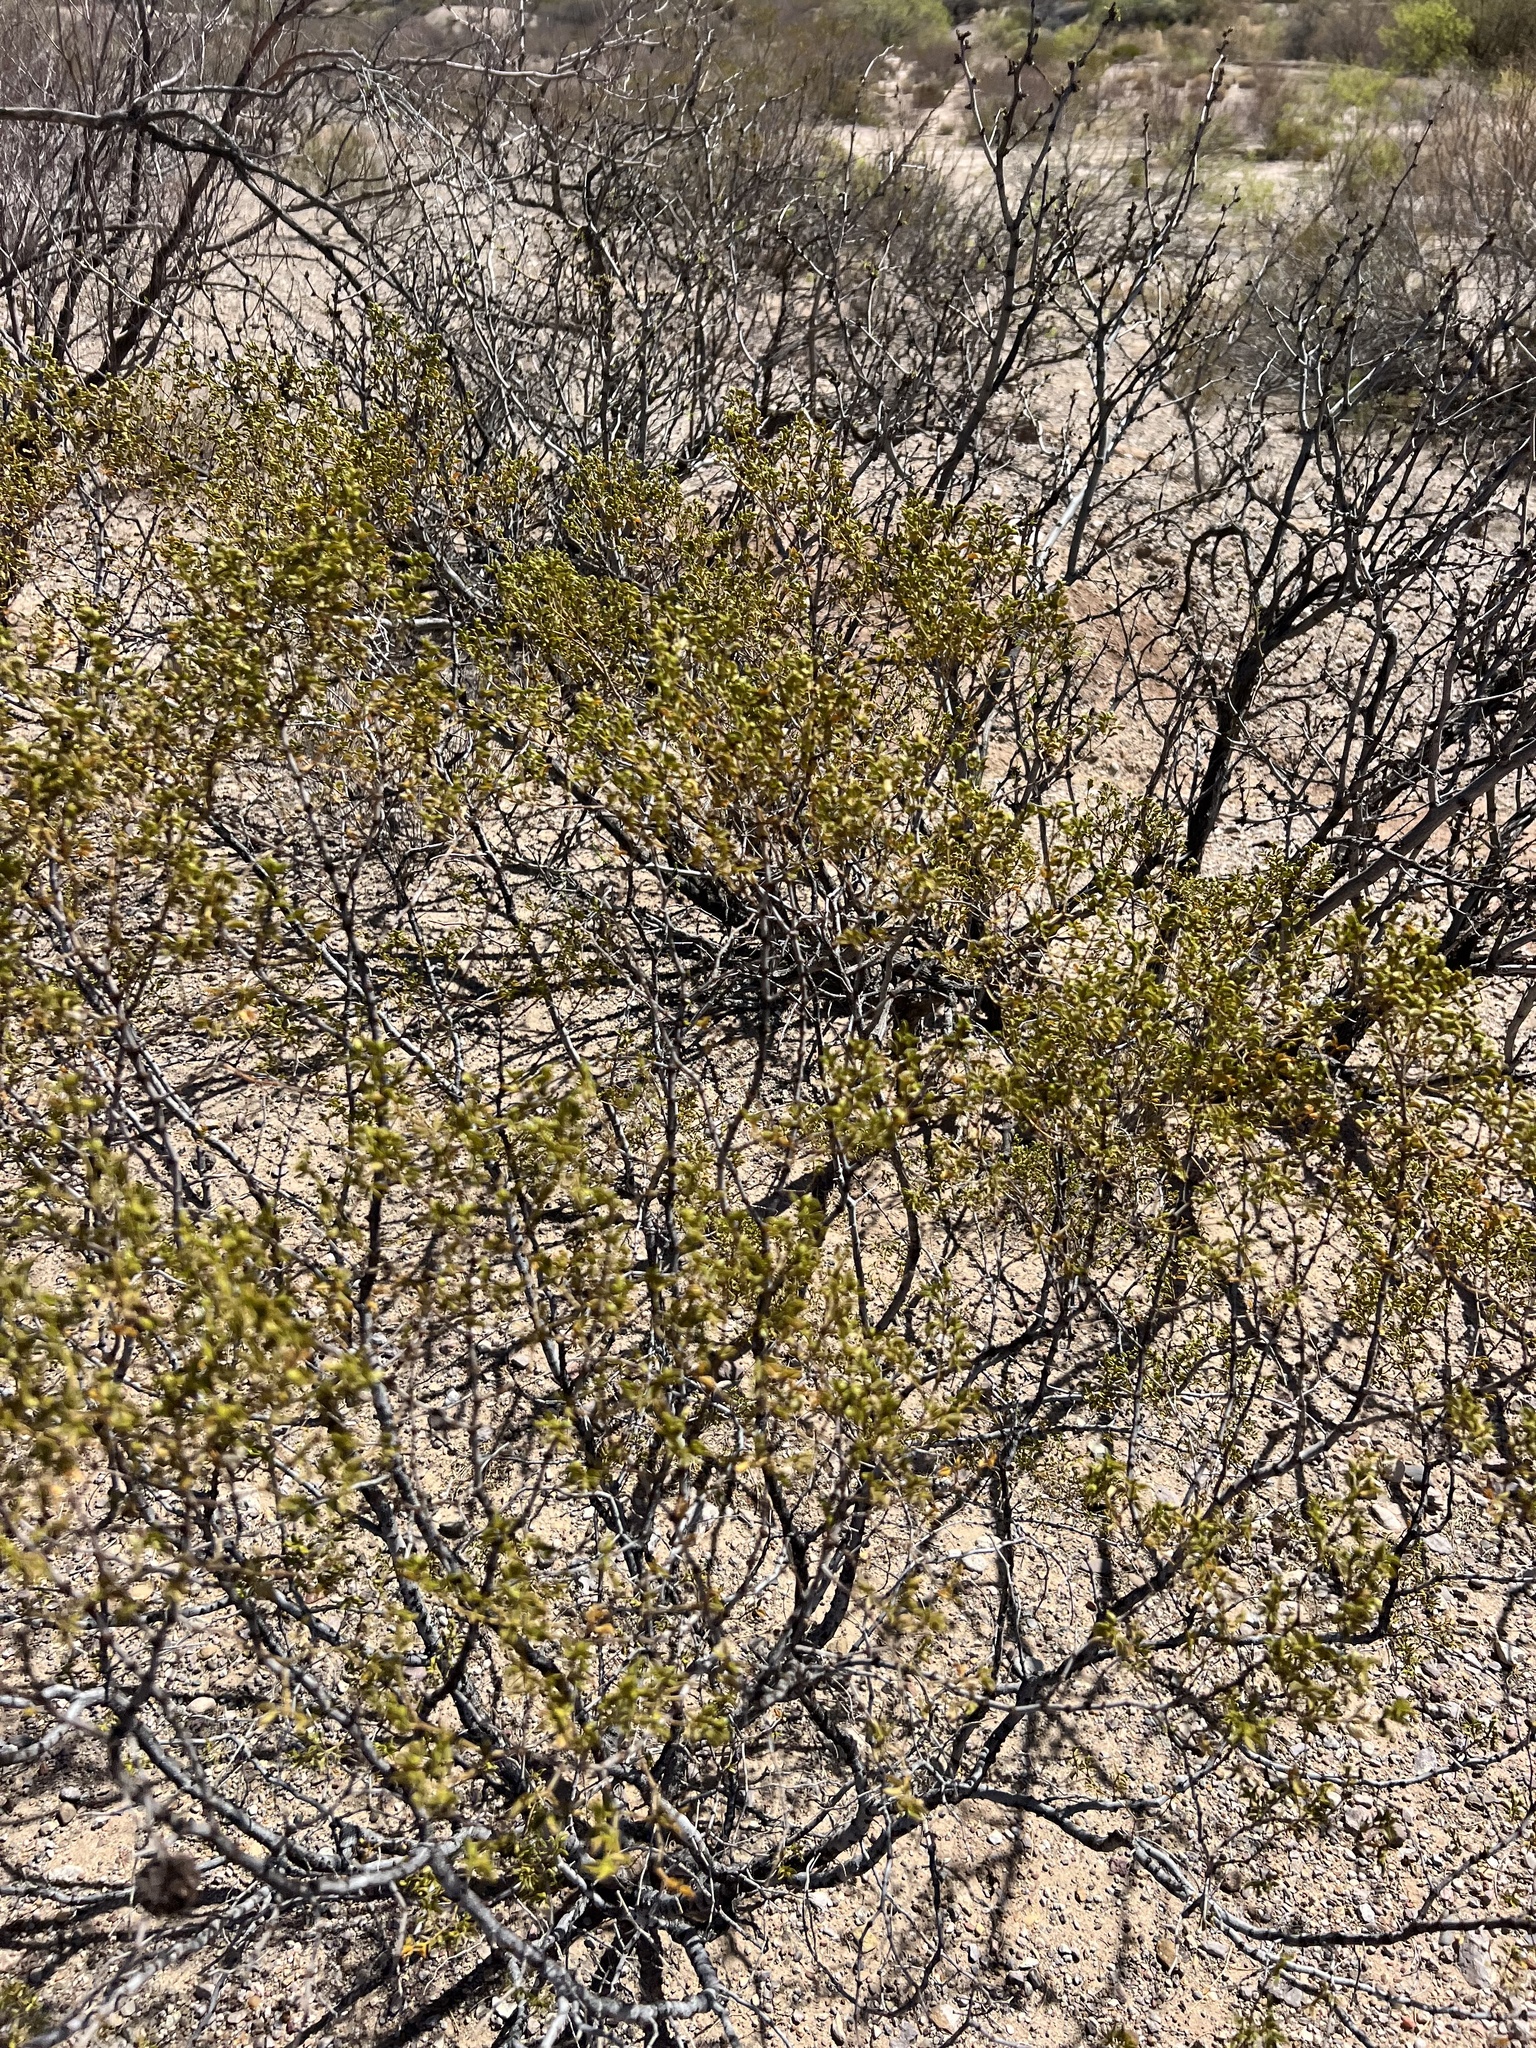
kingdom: Plantae
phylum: Tracheophyta
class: Magnoliopsida
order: Zygophyllales
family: Zygophyllaceae
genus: Larrea
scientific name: Larrea tridentata
